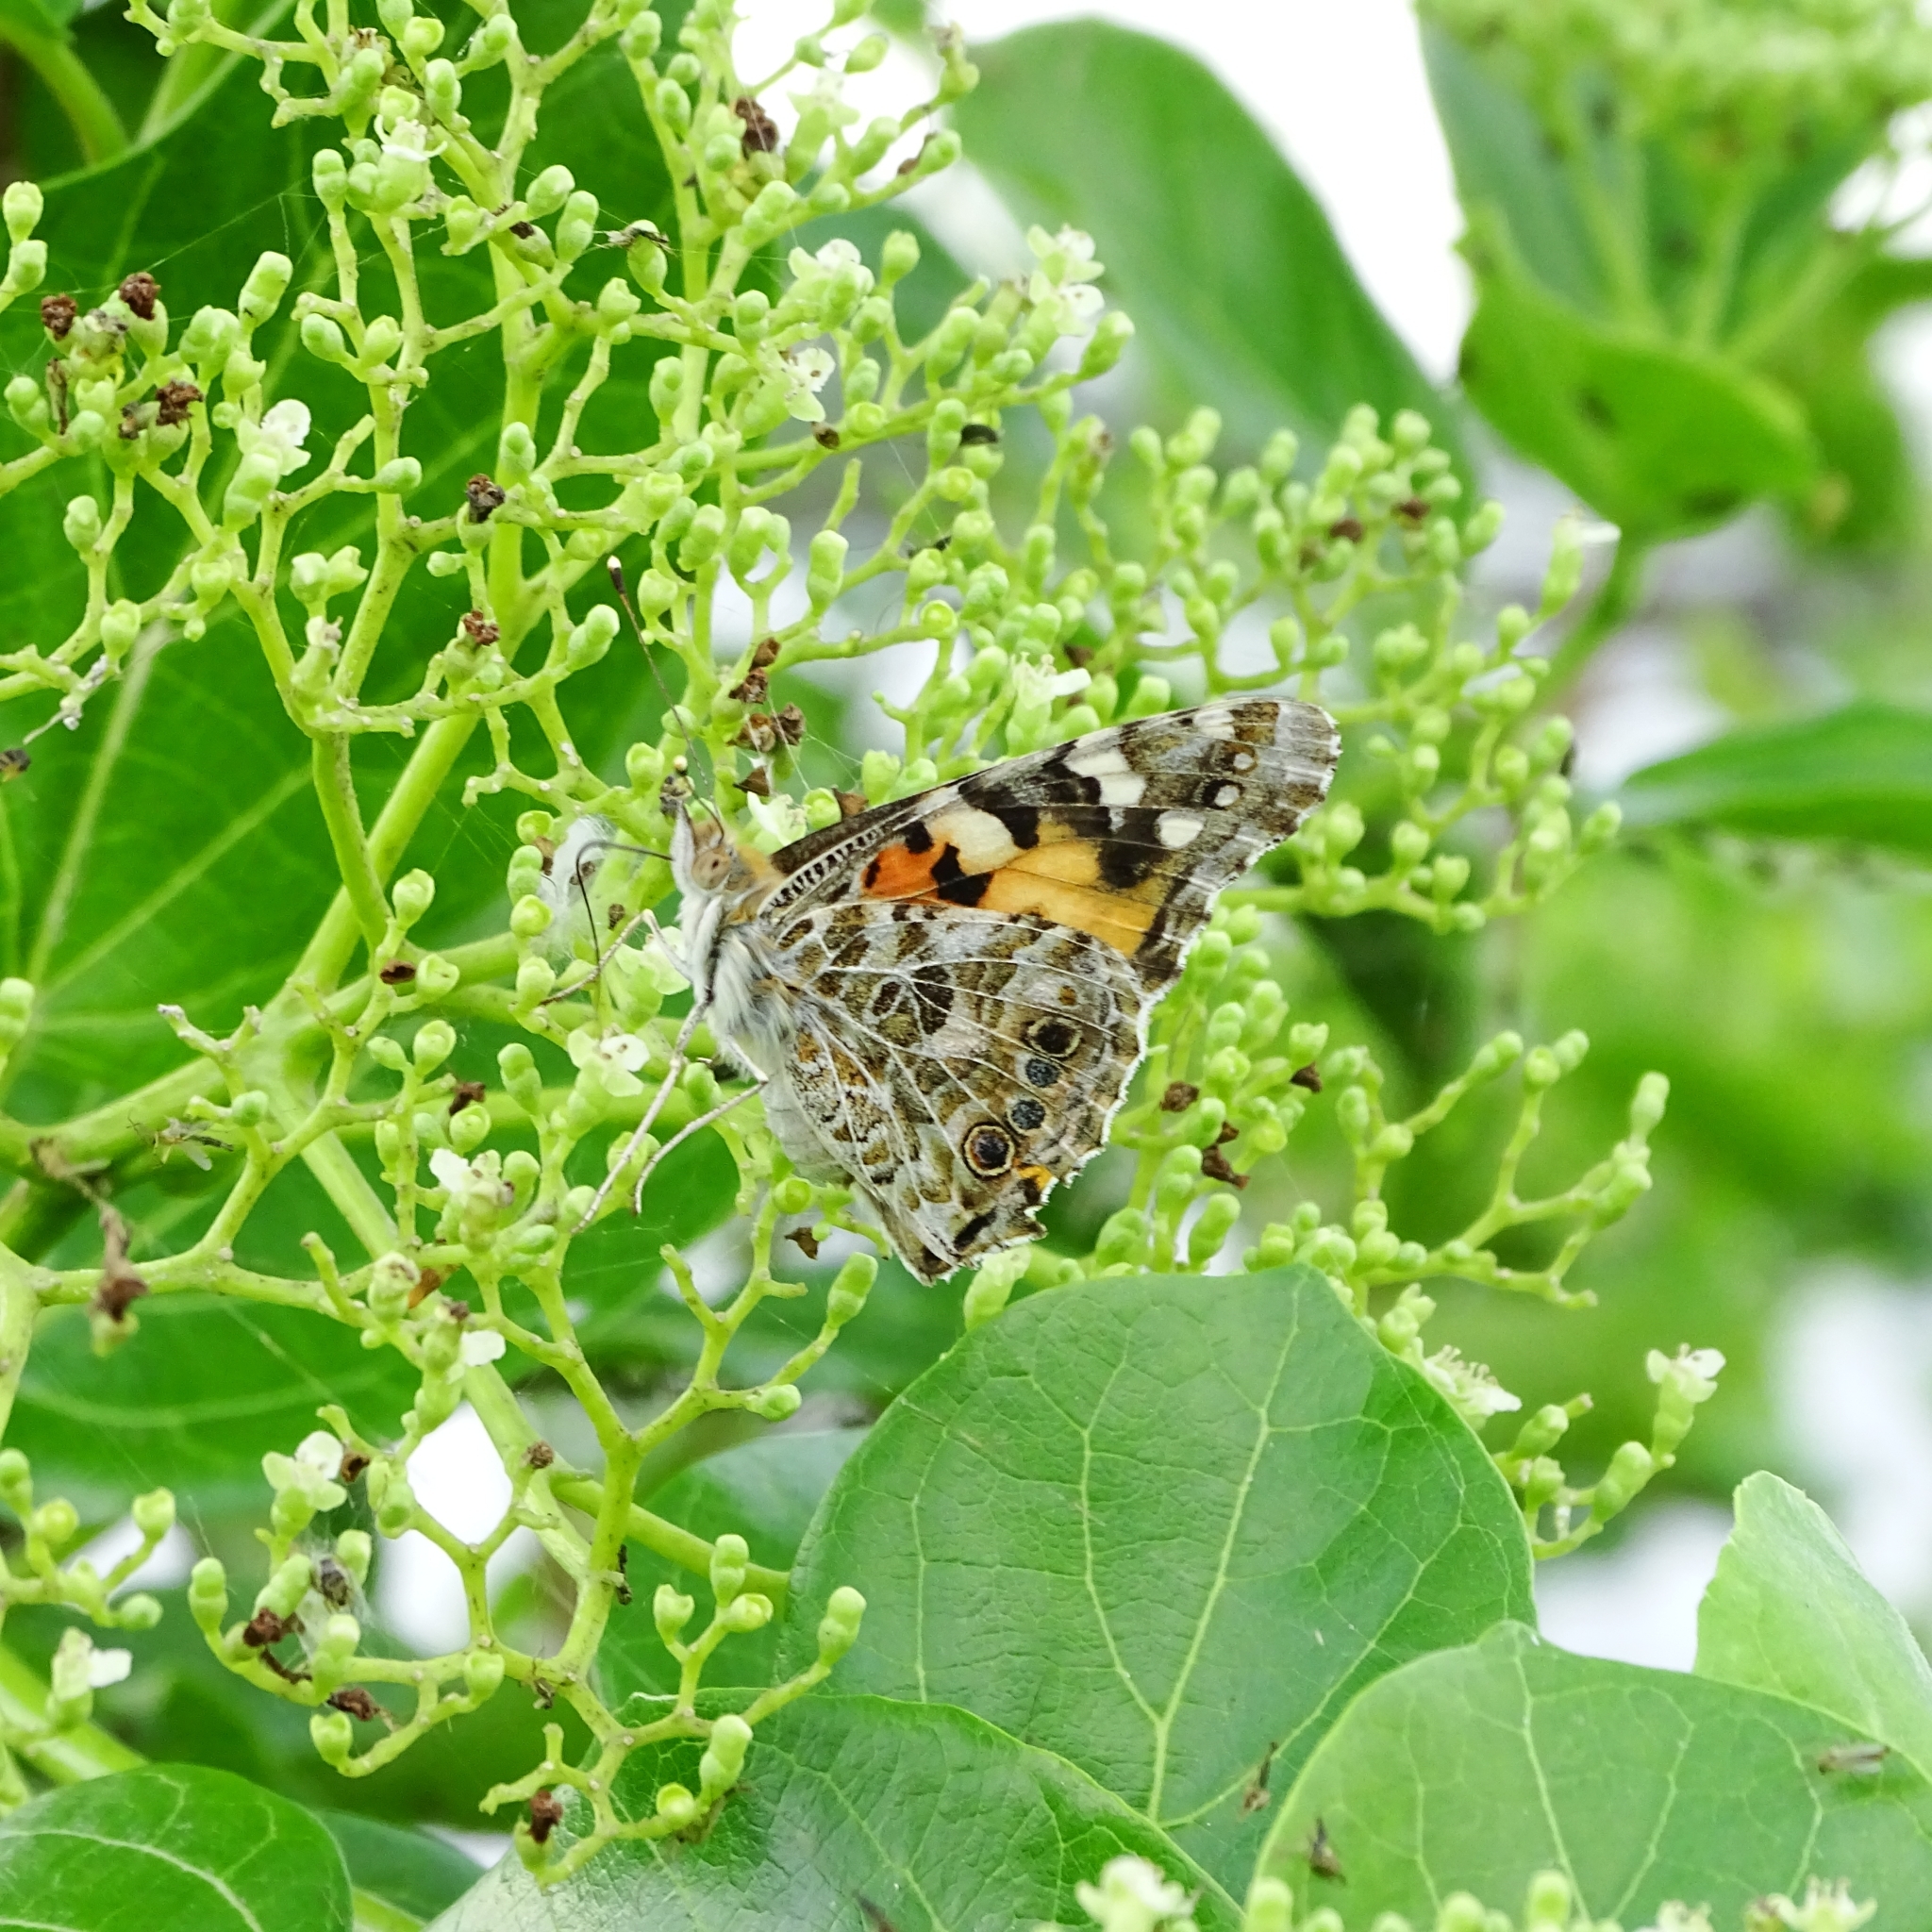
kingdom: Animalia
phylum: Arthropoda
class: Insecta
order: Lepidoptera
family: Nymphalidae
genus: Vanessa
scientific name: Vanessa cardui
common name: Painted lady
